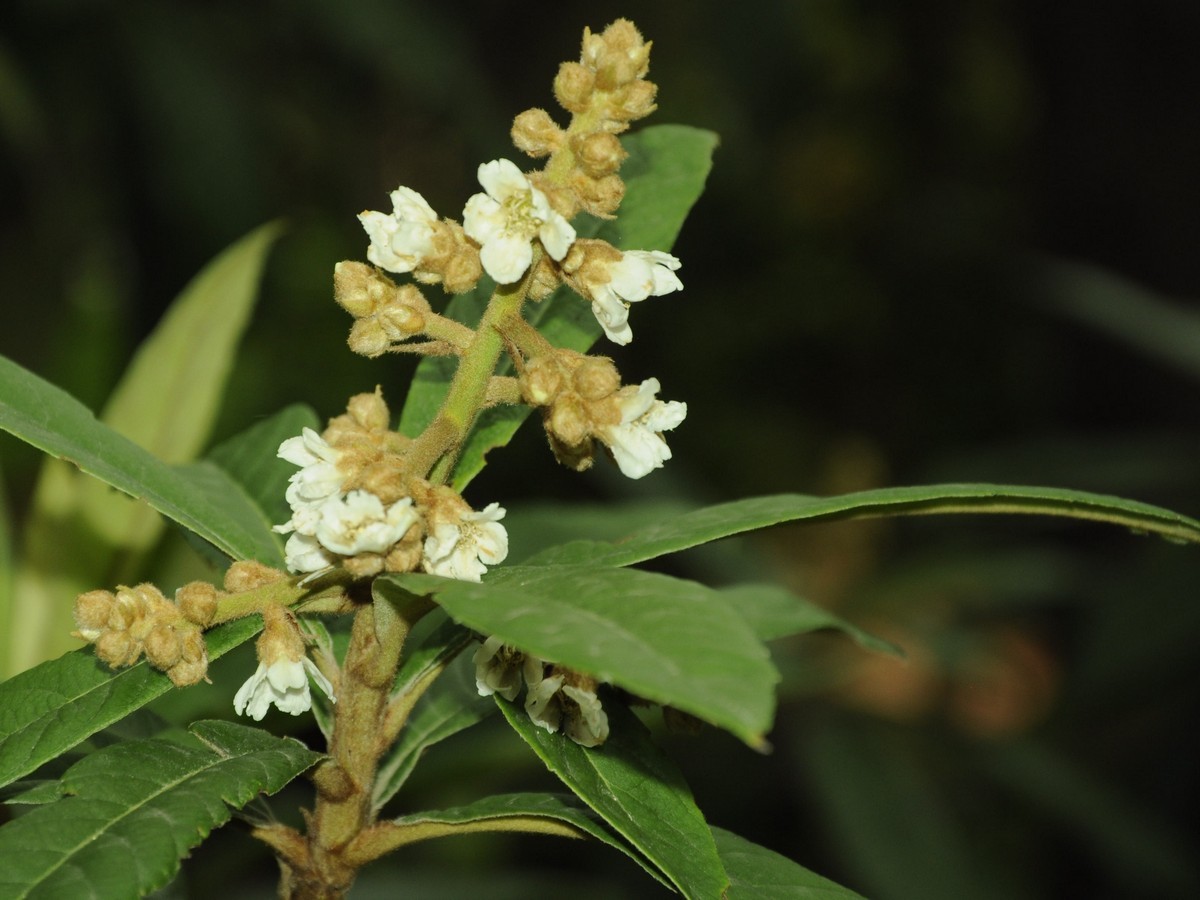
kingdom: Plantae
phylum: Tracheophyta
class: Magnoliopsida
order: Rosales
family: Rosaceae
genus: Rhaphiolepis
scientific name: Rhaphiolepis bibas
